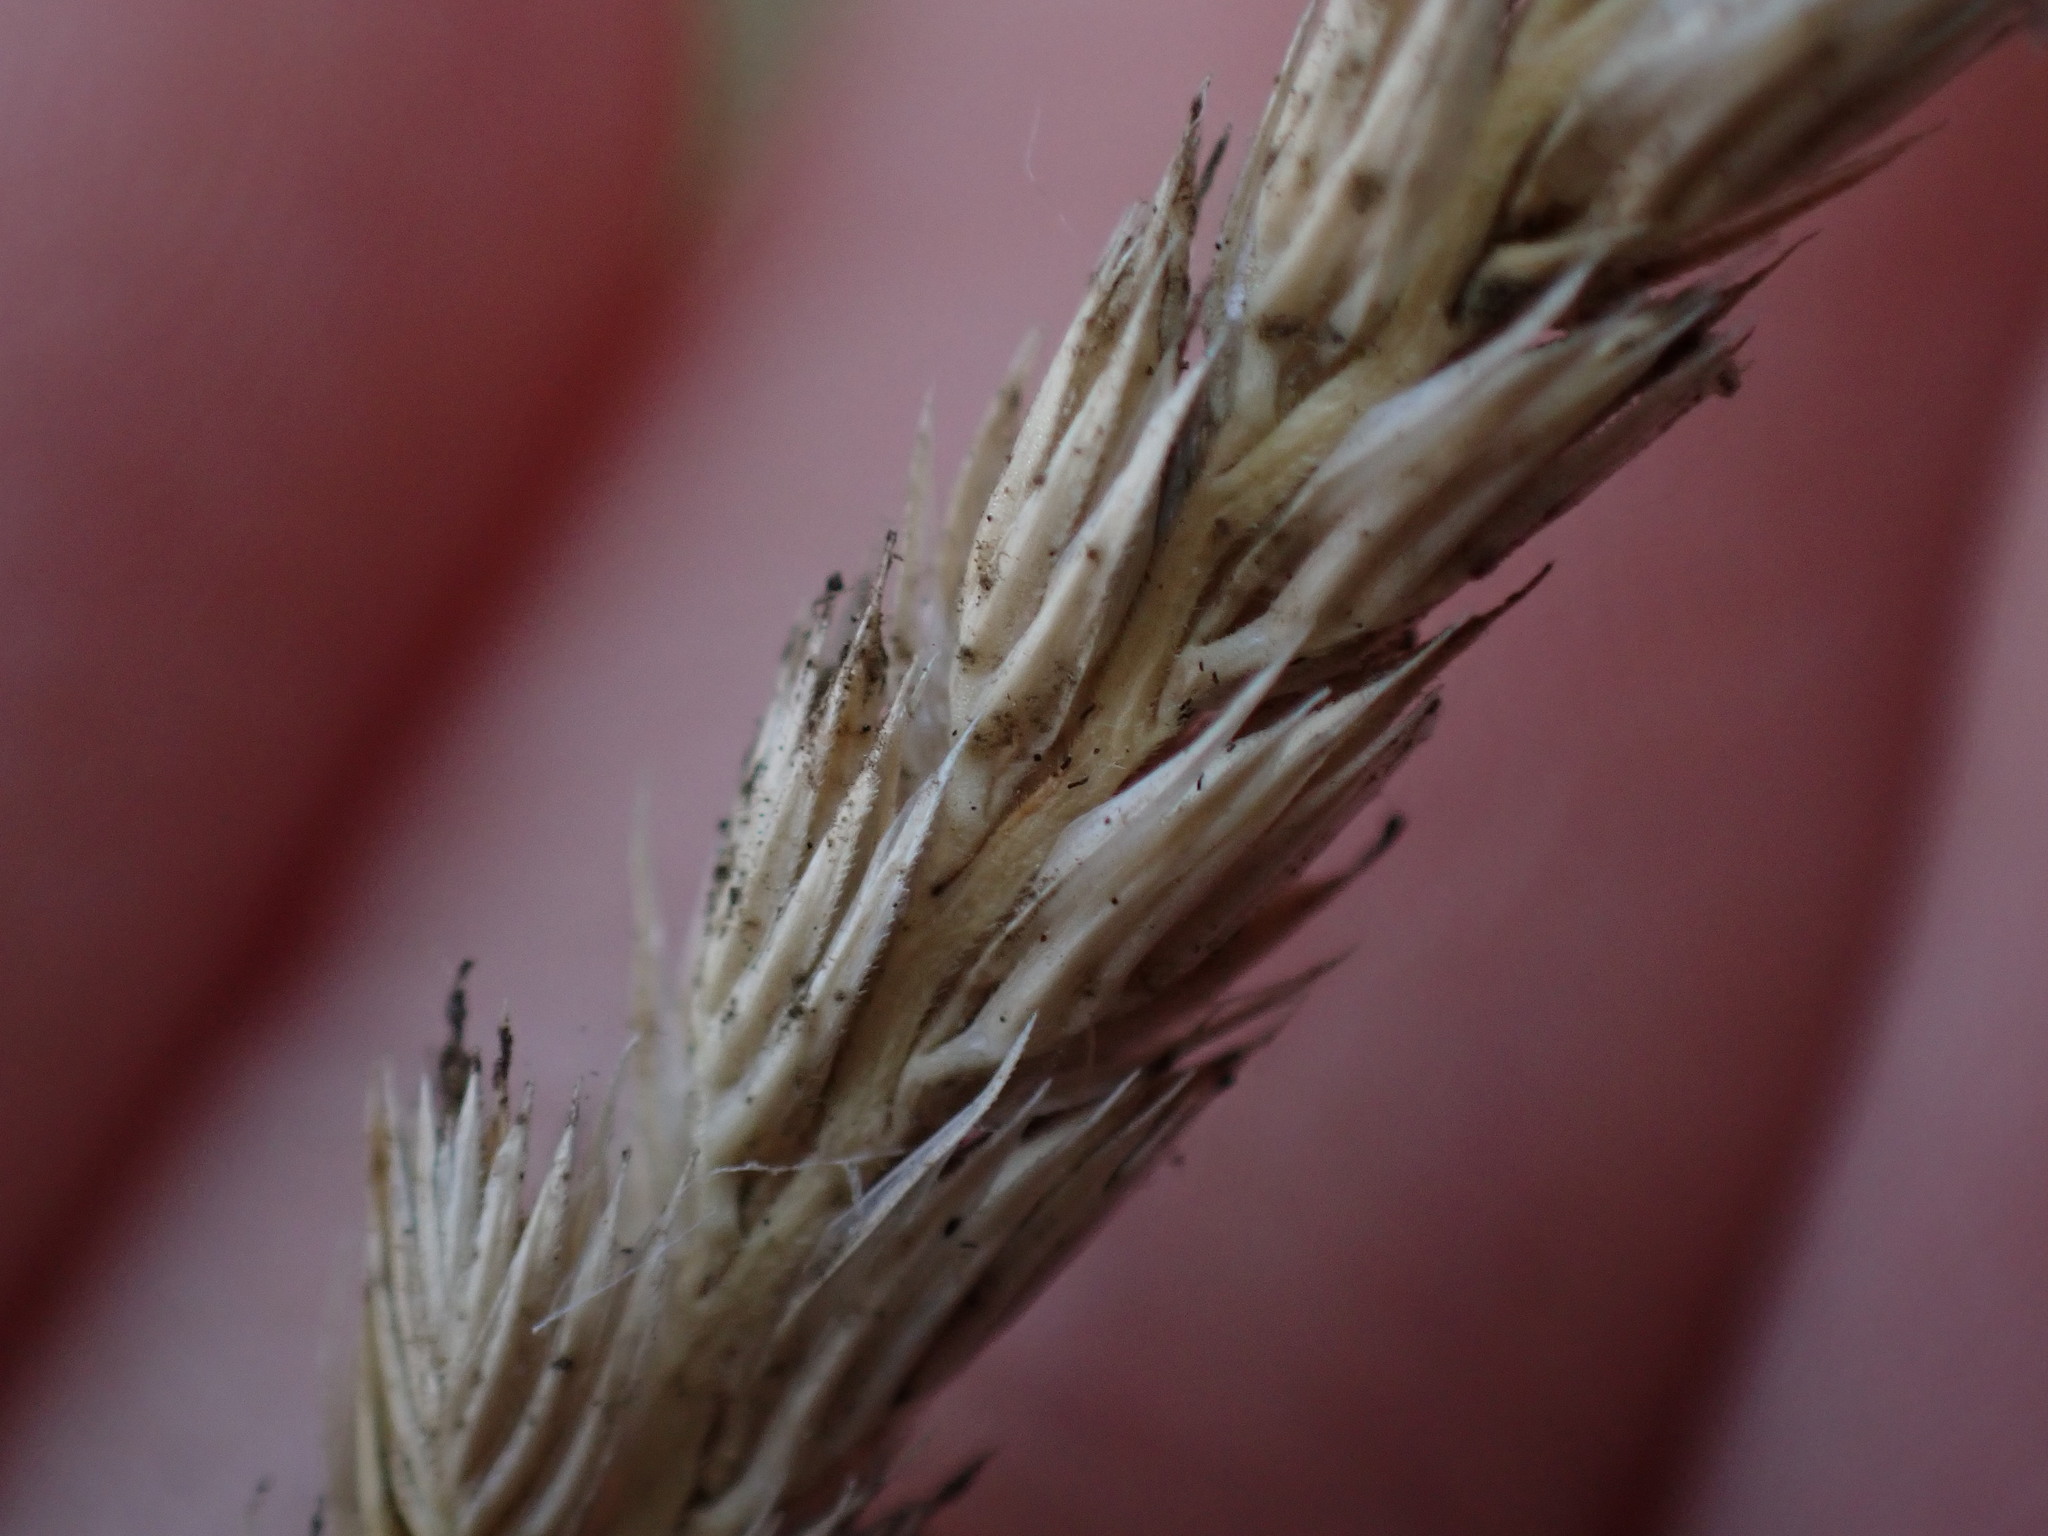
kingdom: Plantae
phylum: Tracheophyta
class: Liliopsida
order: Poales
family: Poaceae
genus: Cynosurus
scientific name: Cynosurus cristatus
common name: Crested dog's-tail
